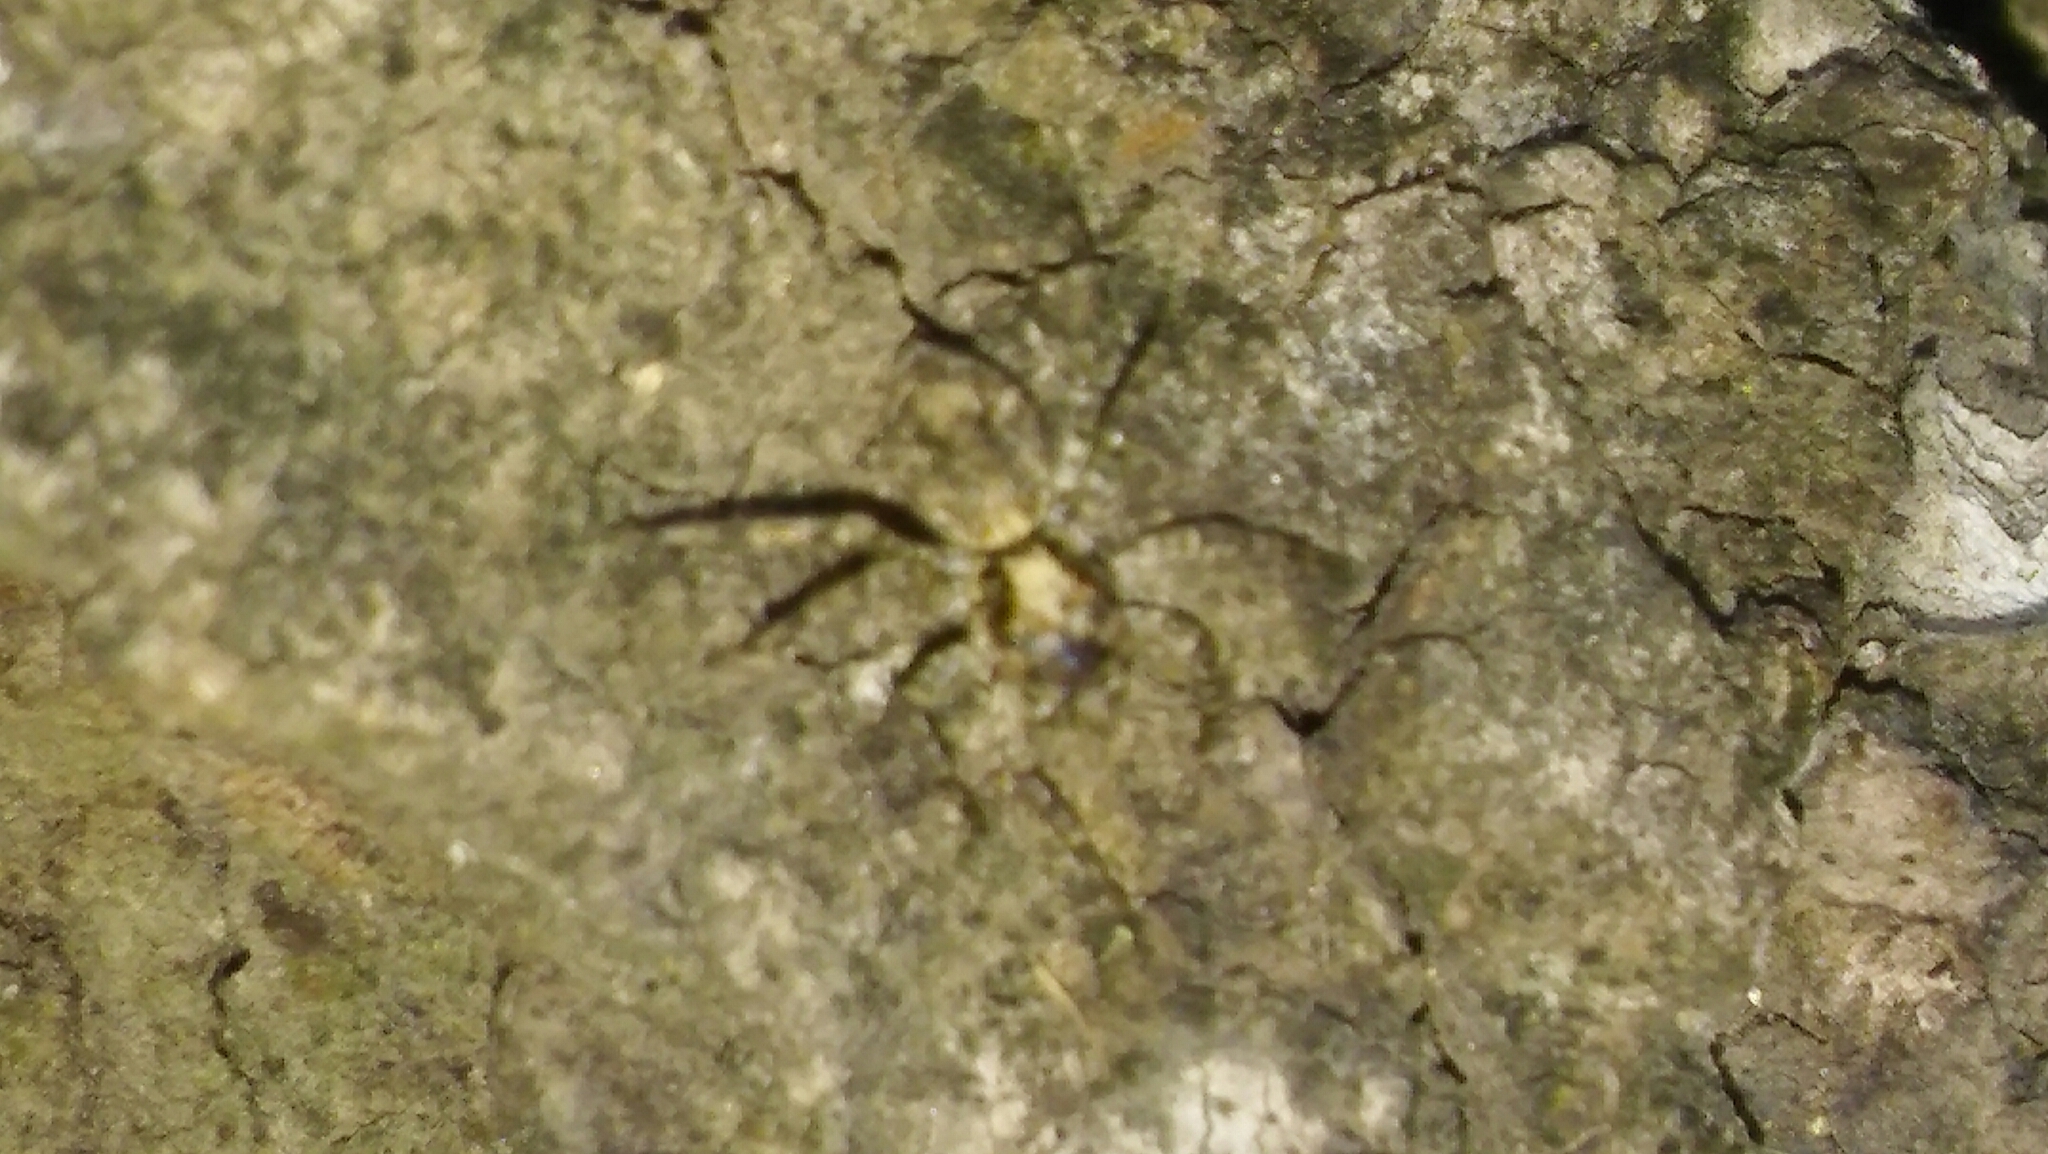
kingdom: Animalia
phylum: Arthropoda
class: Arachnida
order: Araneae
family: Salticidae
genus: Saitis
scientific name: Saitis variegatus
